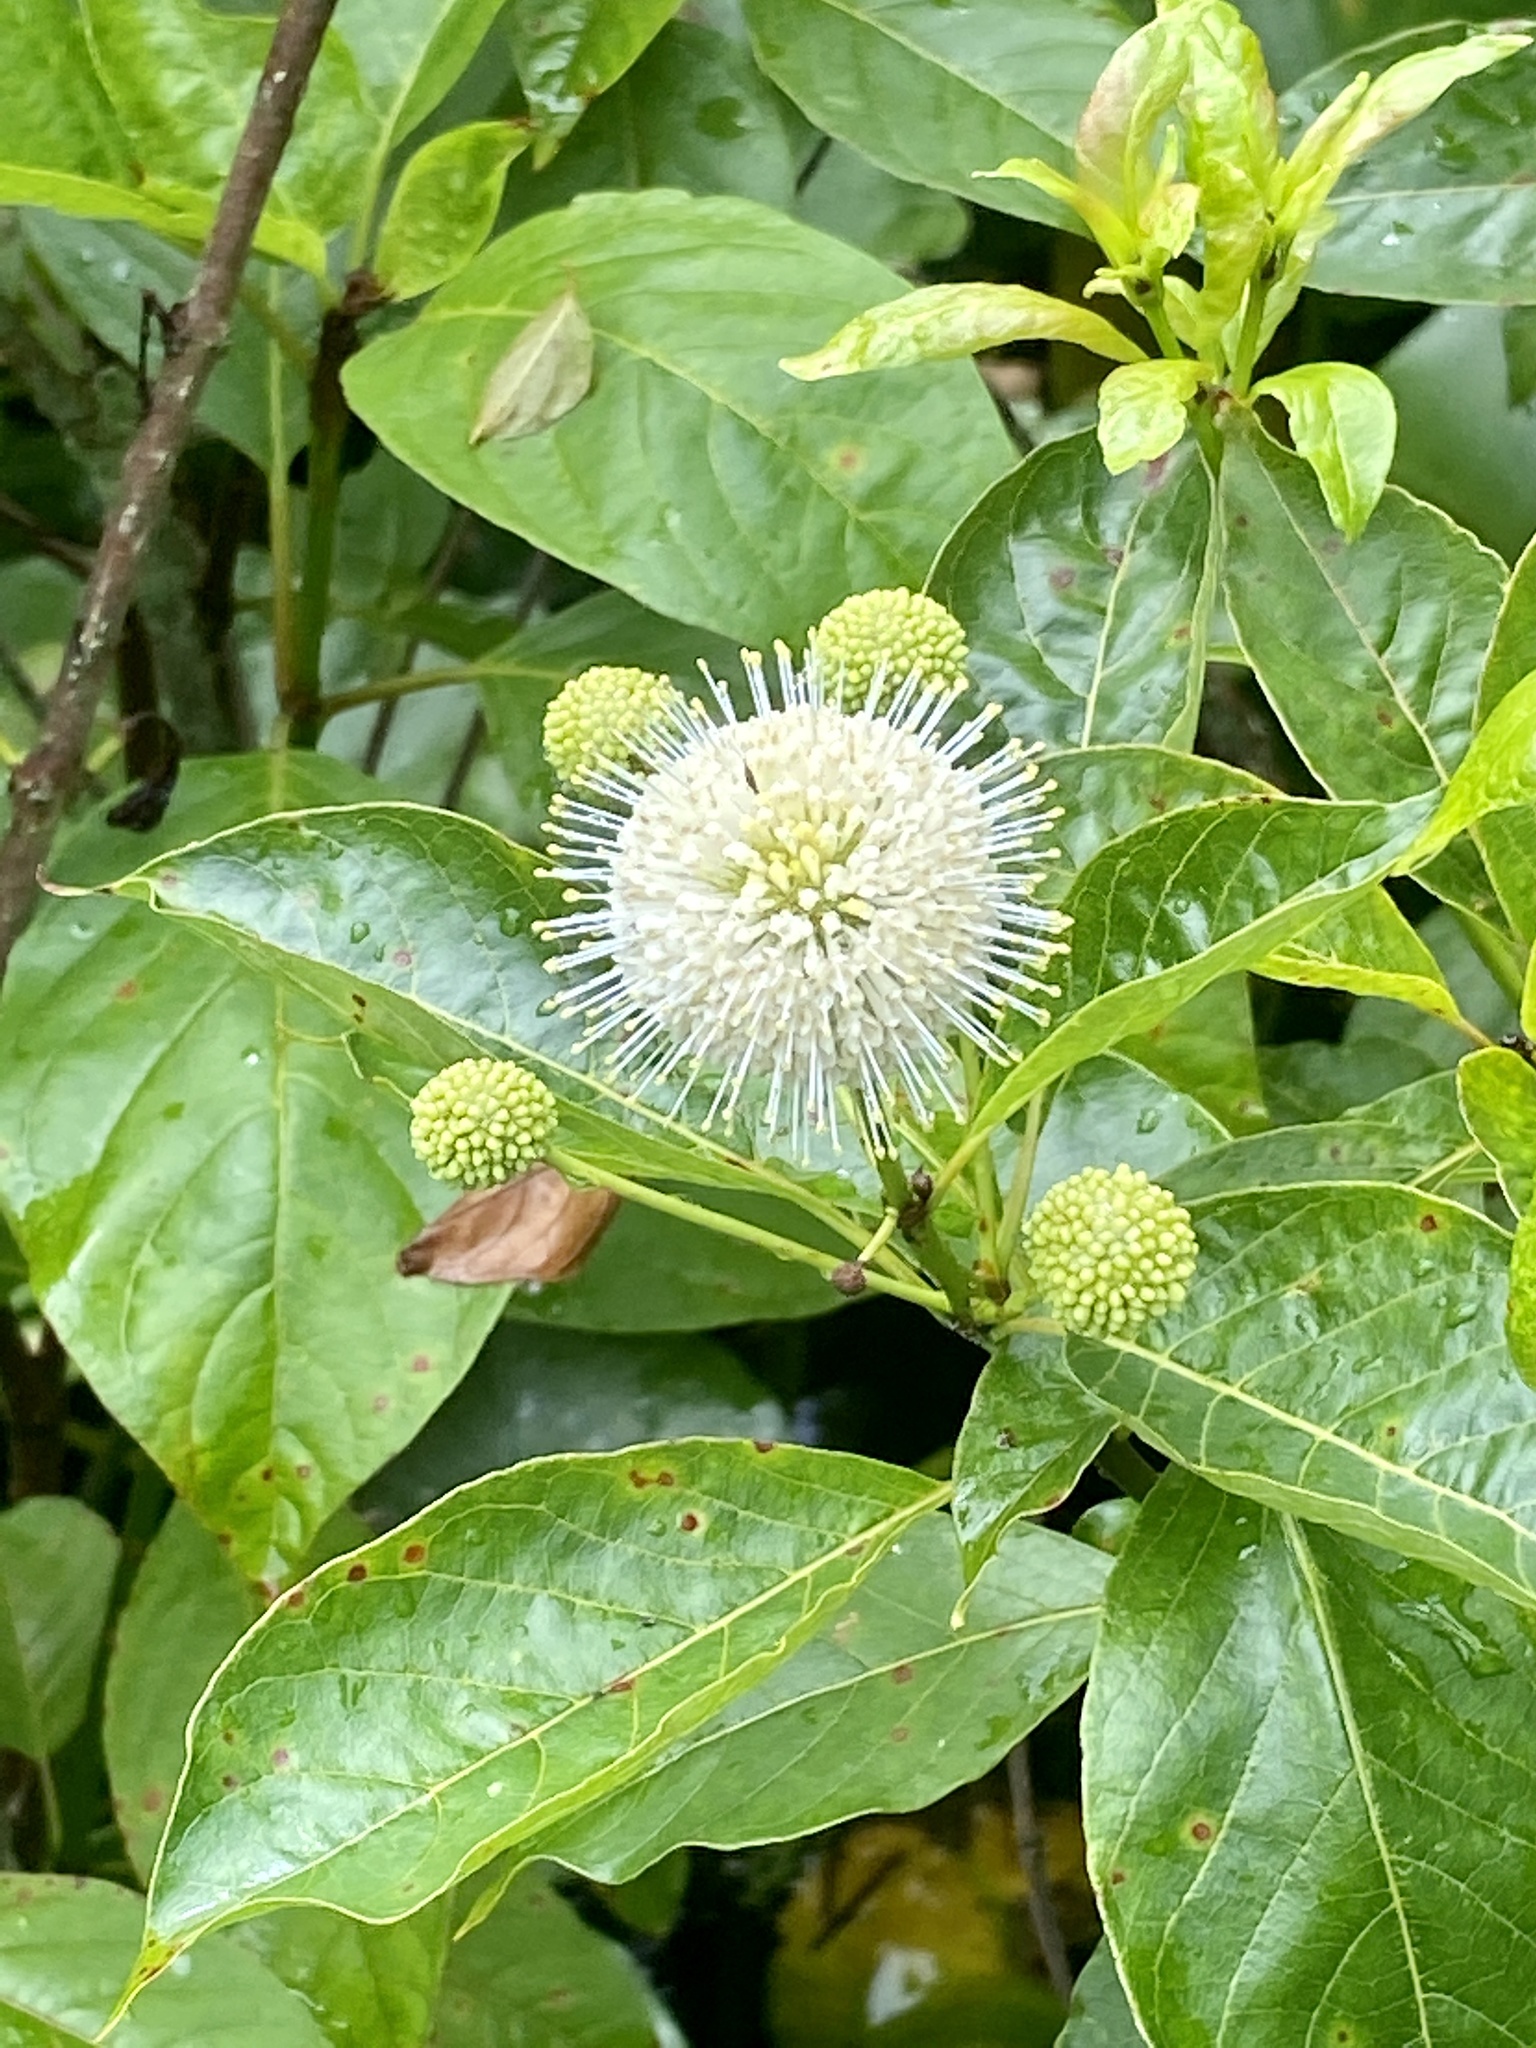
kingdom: Plantae
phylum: Tracheophyta
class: Magnoliopsida
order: Gentianales
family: Rubiaceae
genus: Cephalanthus
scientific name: Cephalanthus occidentalis
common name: Button-willow
